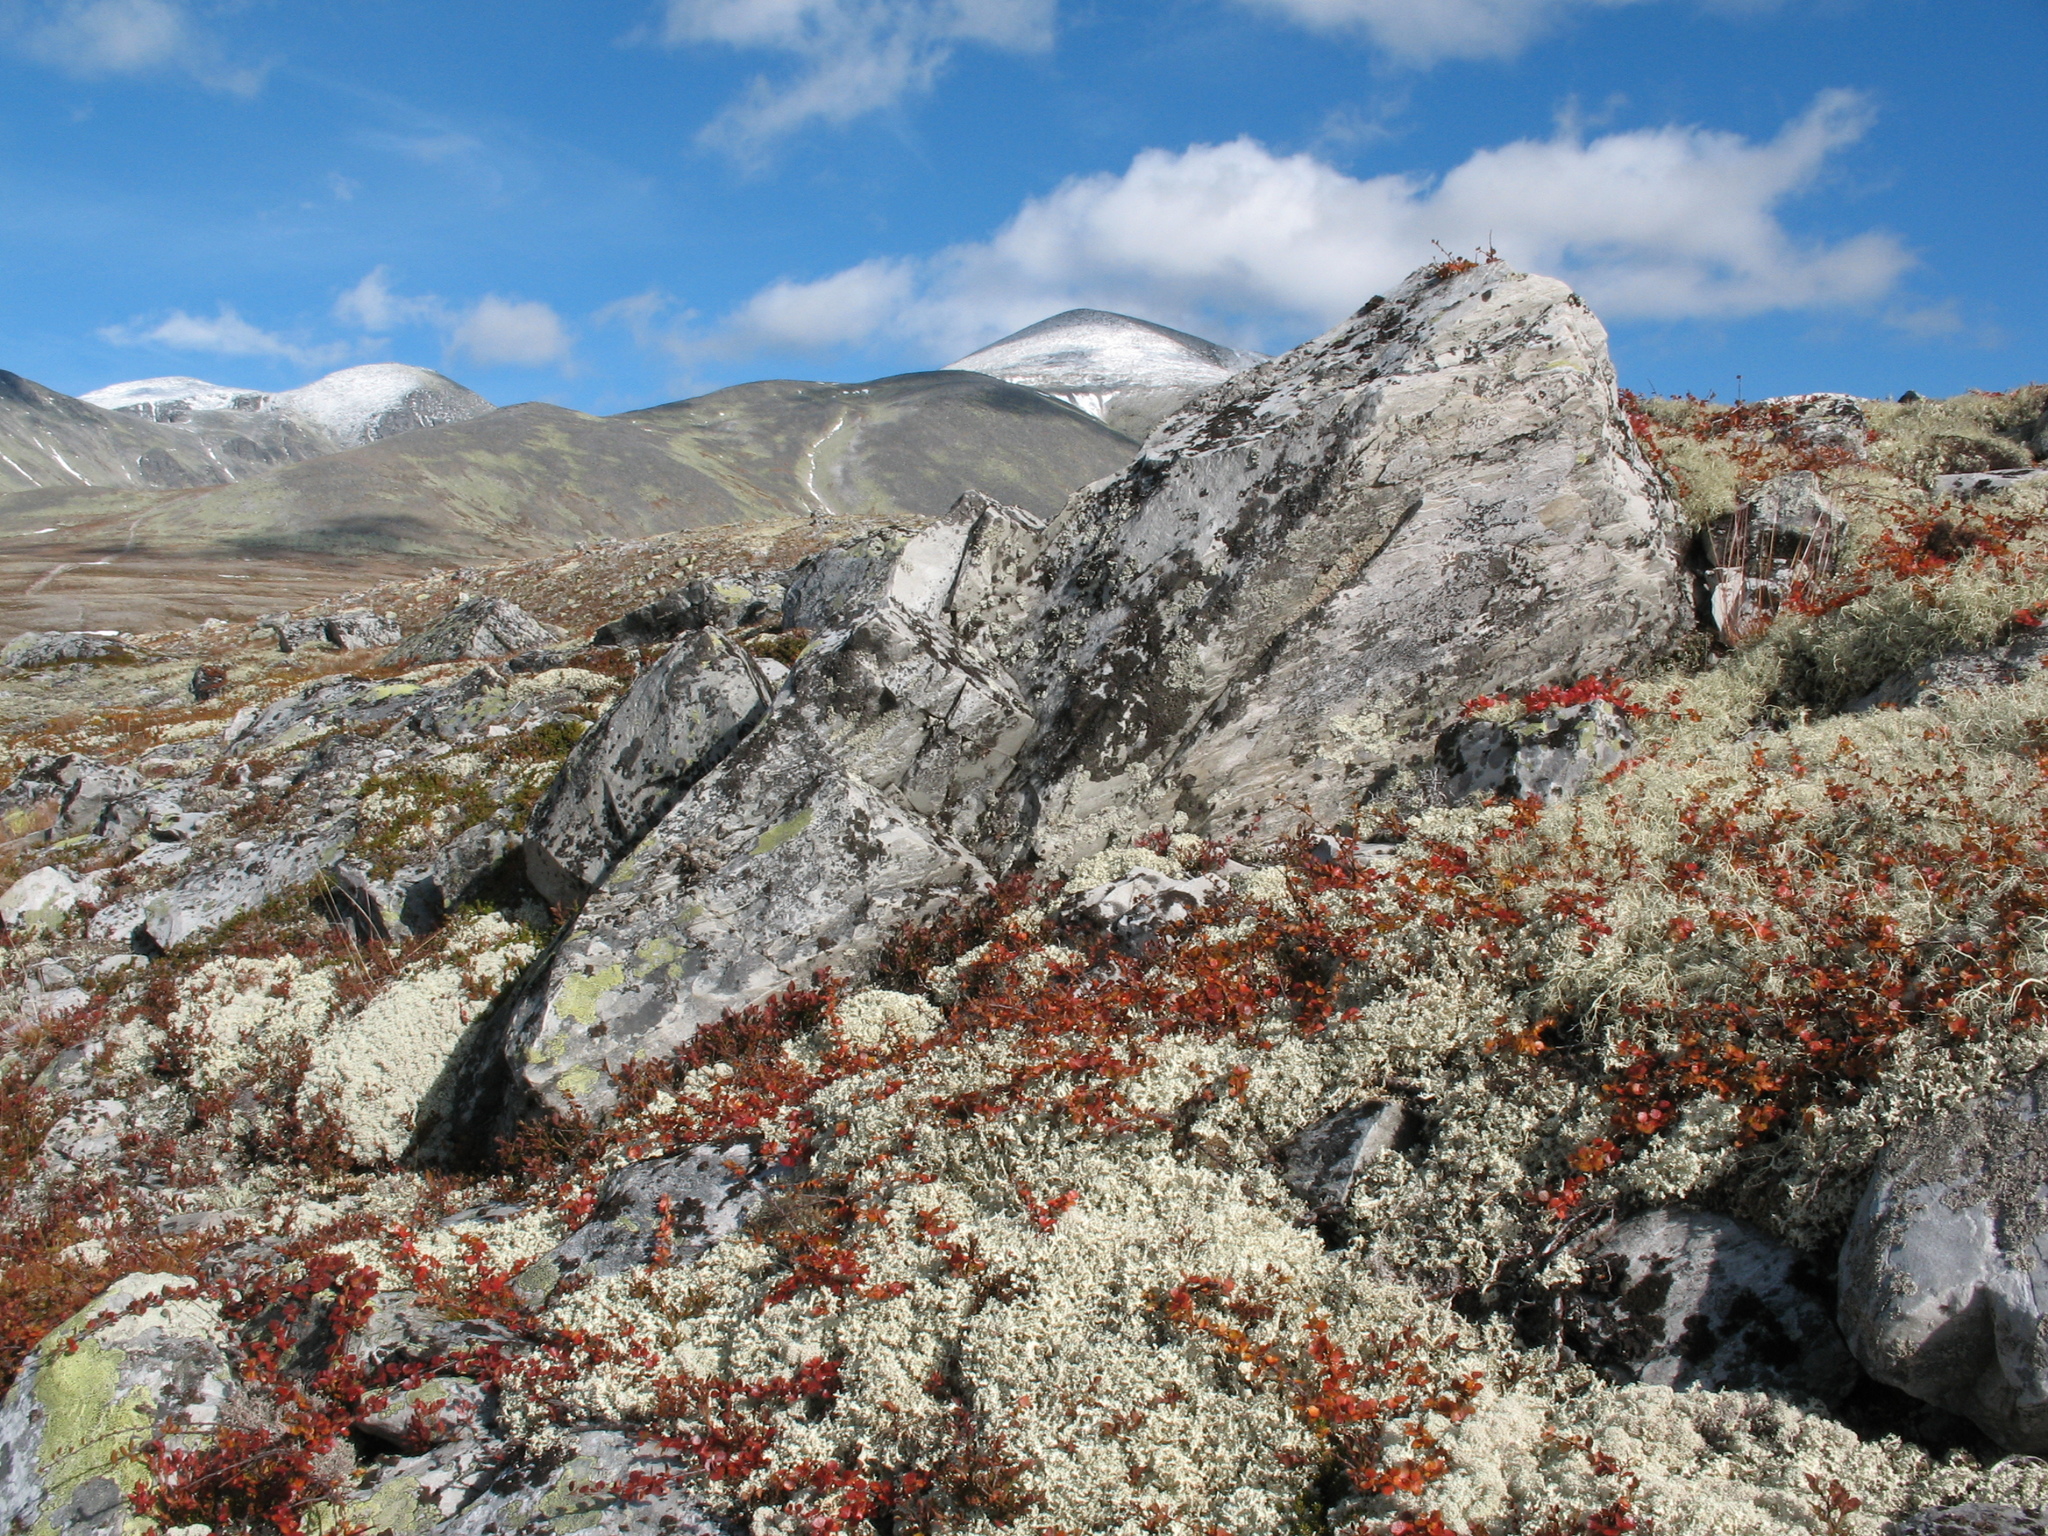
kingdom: Plantae
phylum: Tracheophyta
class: Magnoliopsida
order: Fagales
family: Betulaceae
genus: Betula
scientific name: Betula nana
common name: Arctic dwarf birch
